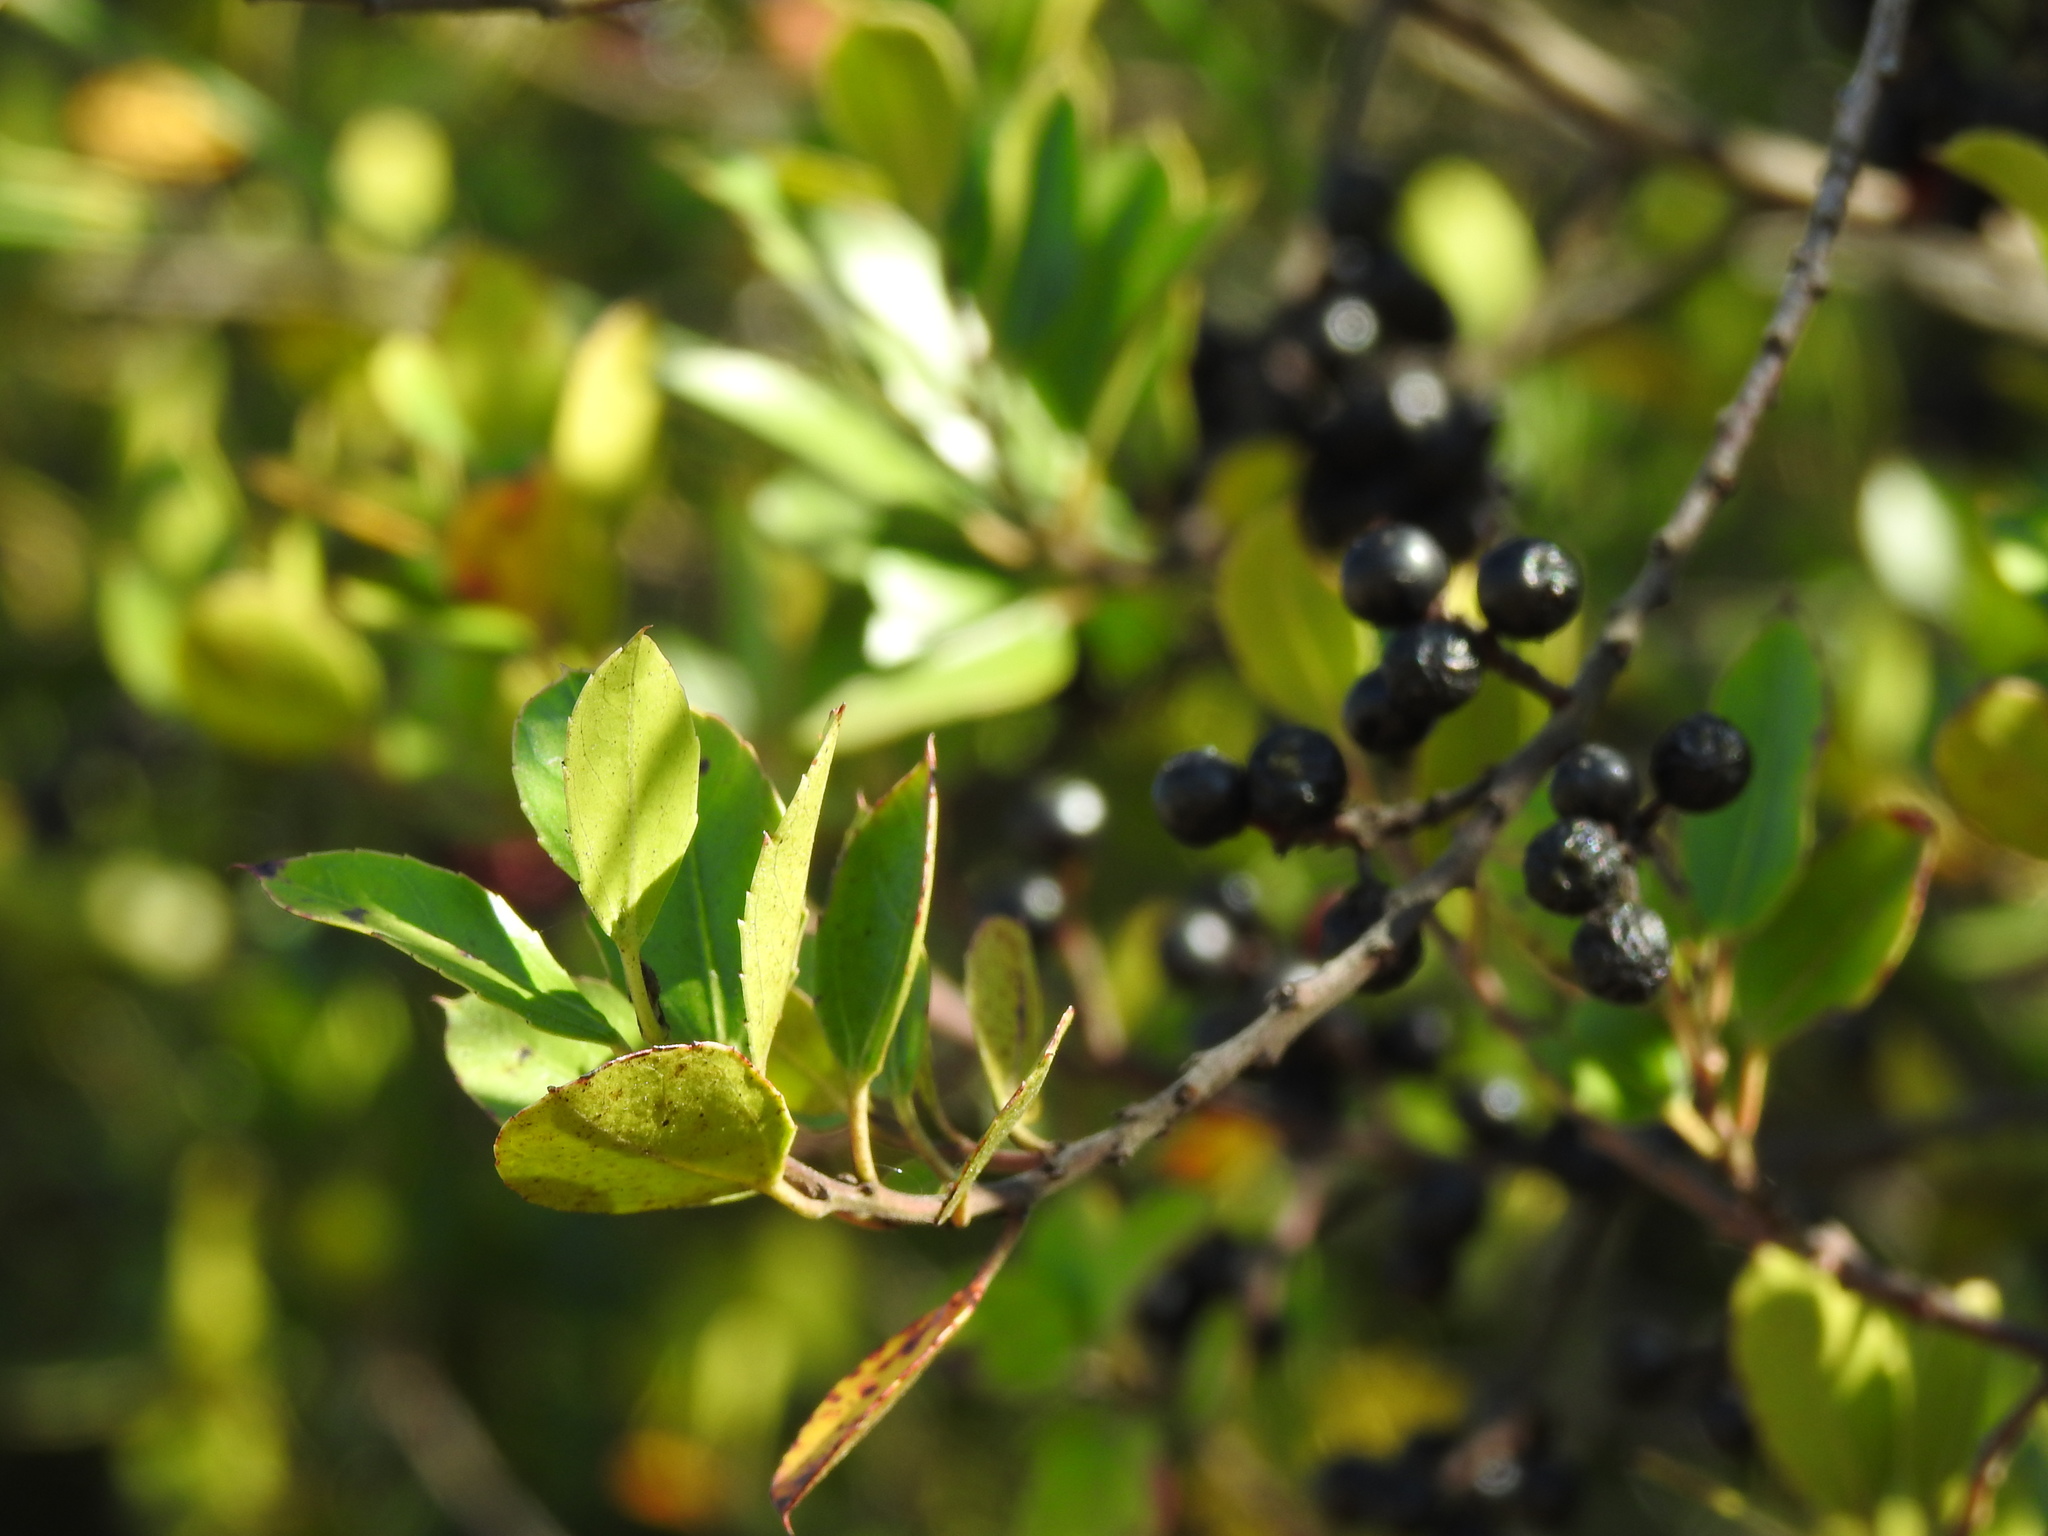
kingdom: Plantae
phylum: Tracheophyta
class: Magnoliopsida
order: Rosales
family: Rhamnaceae
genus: Rhamnus
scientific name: Rhamnus alaternus
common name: Mediterranean buckthorn
